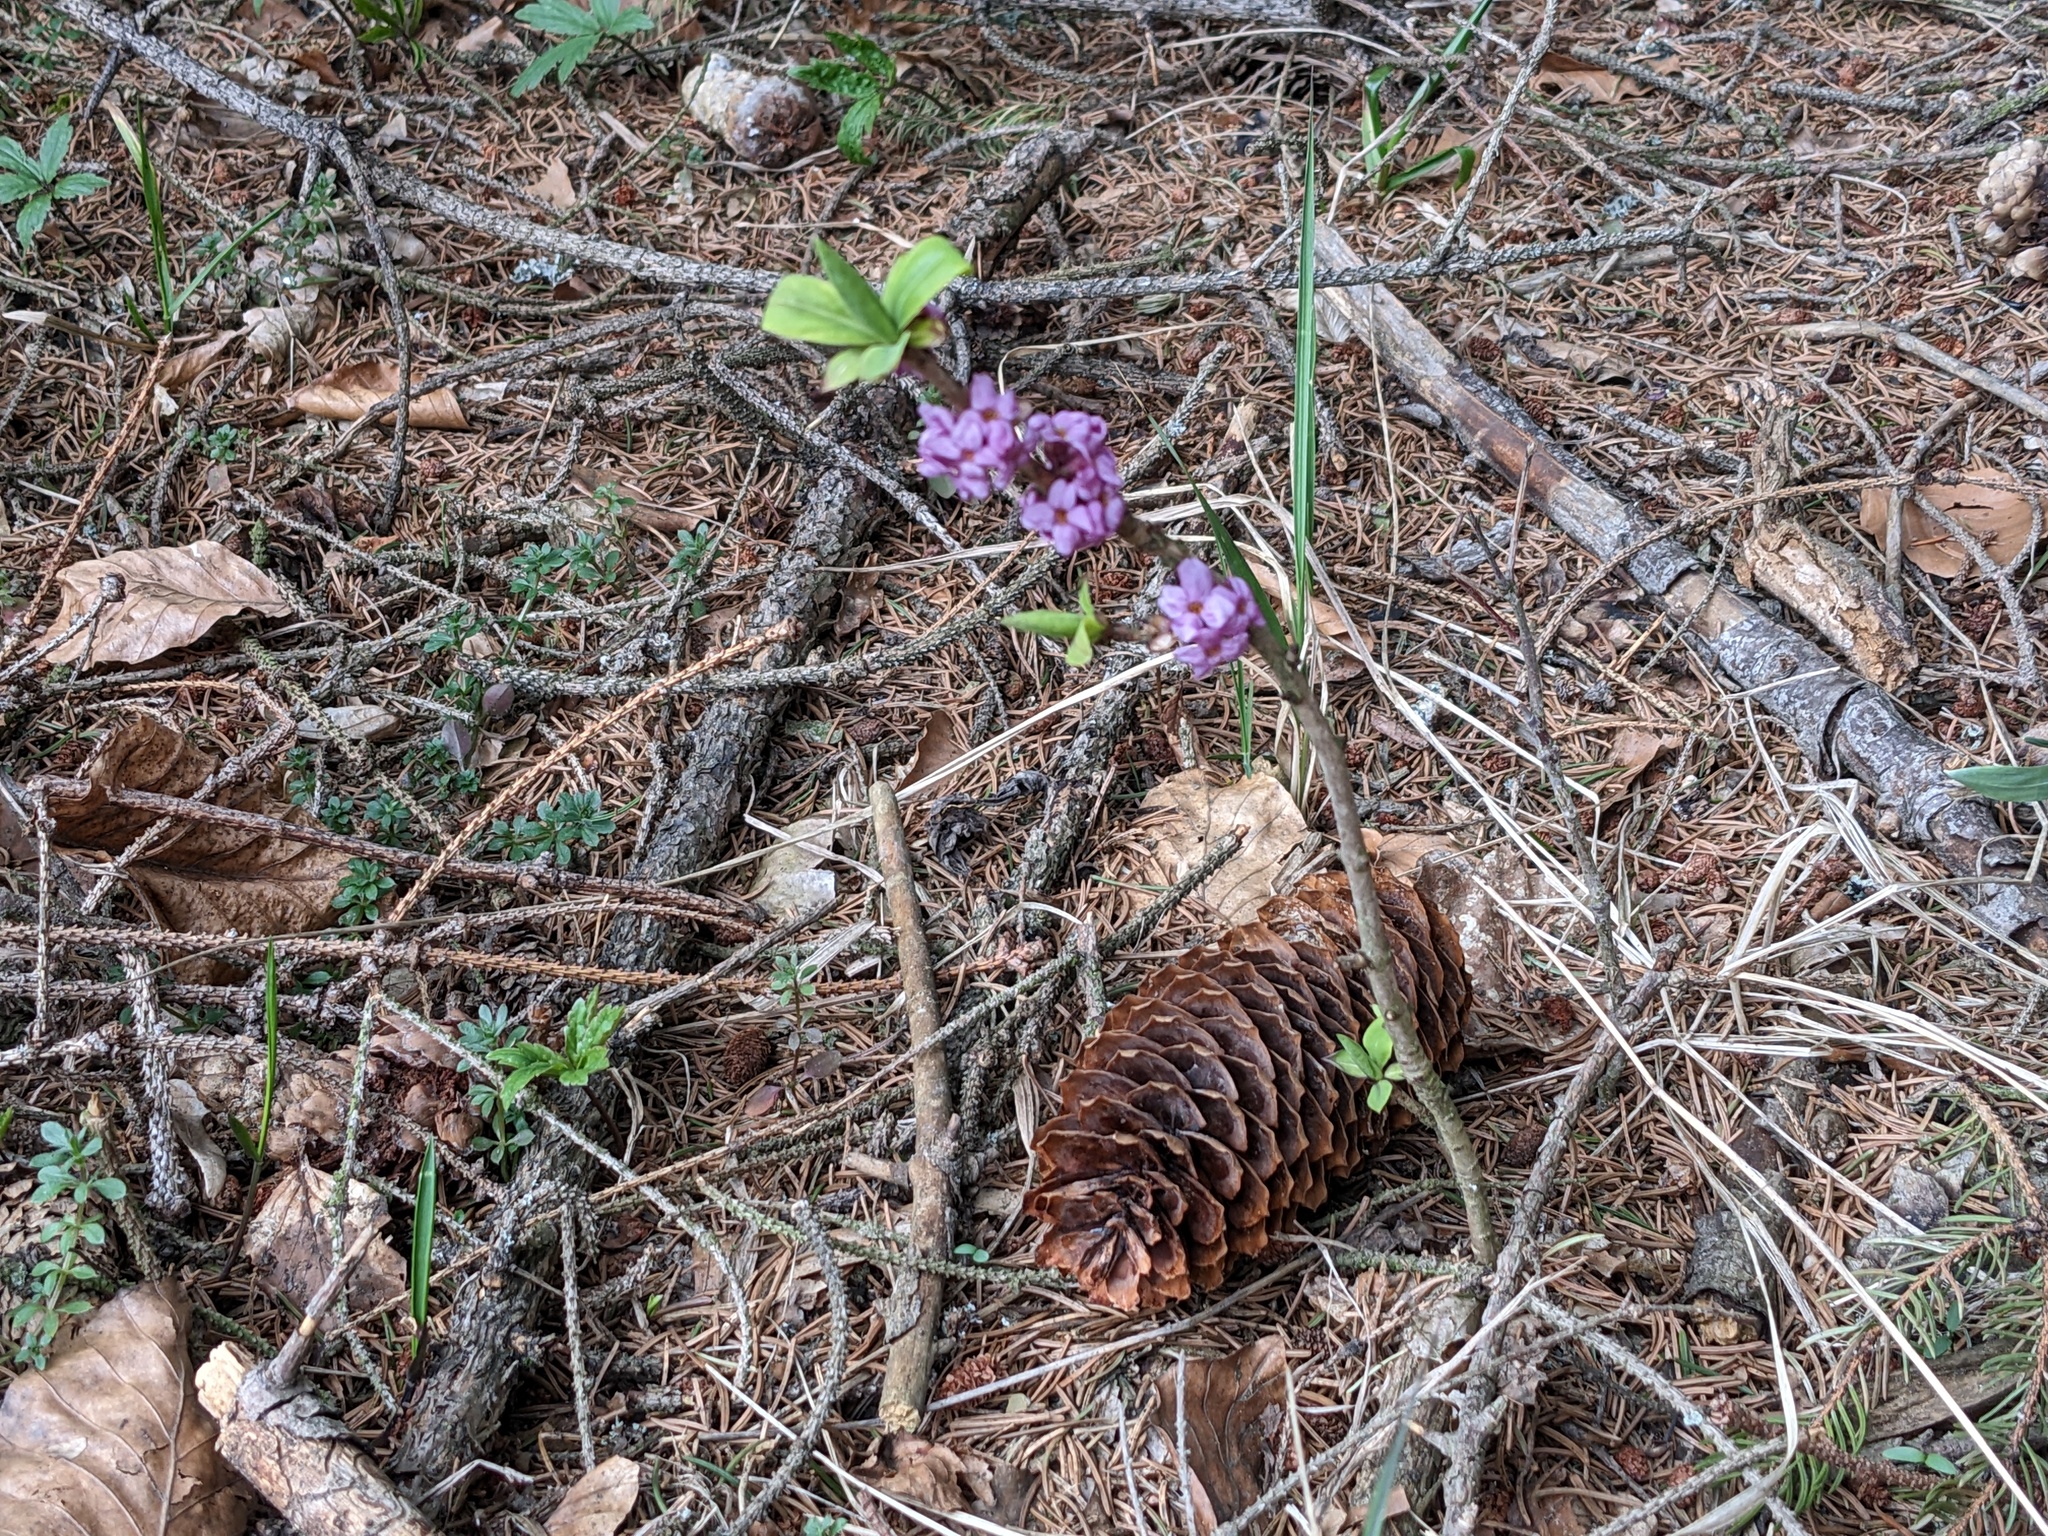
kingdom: Plantae
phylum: Tracheophyta
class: Magnoliopsida
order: Malvales
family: Thymelaeaceae
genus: Daphne
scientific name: Daphne mezereum
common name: Mezereon
